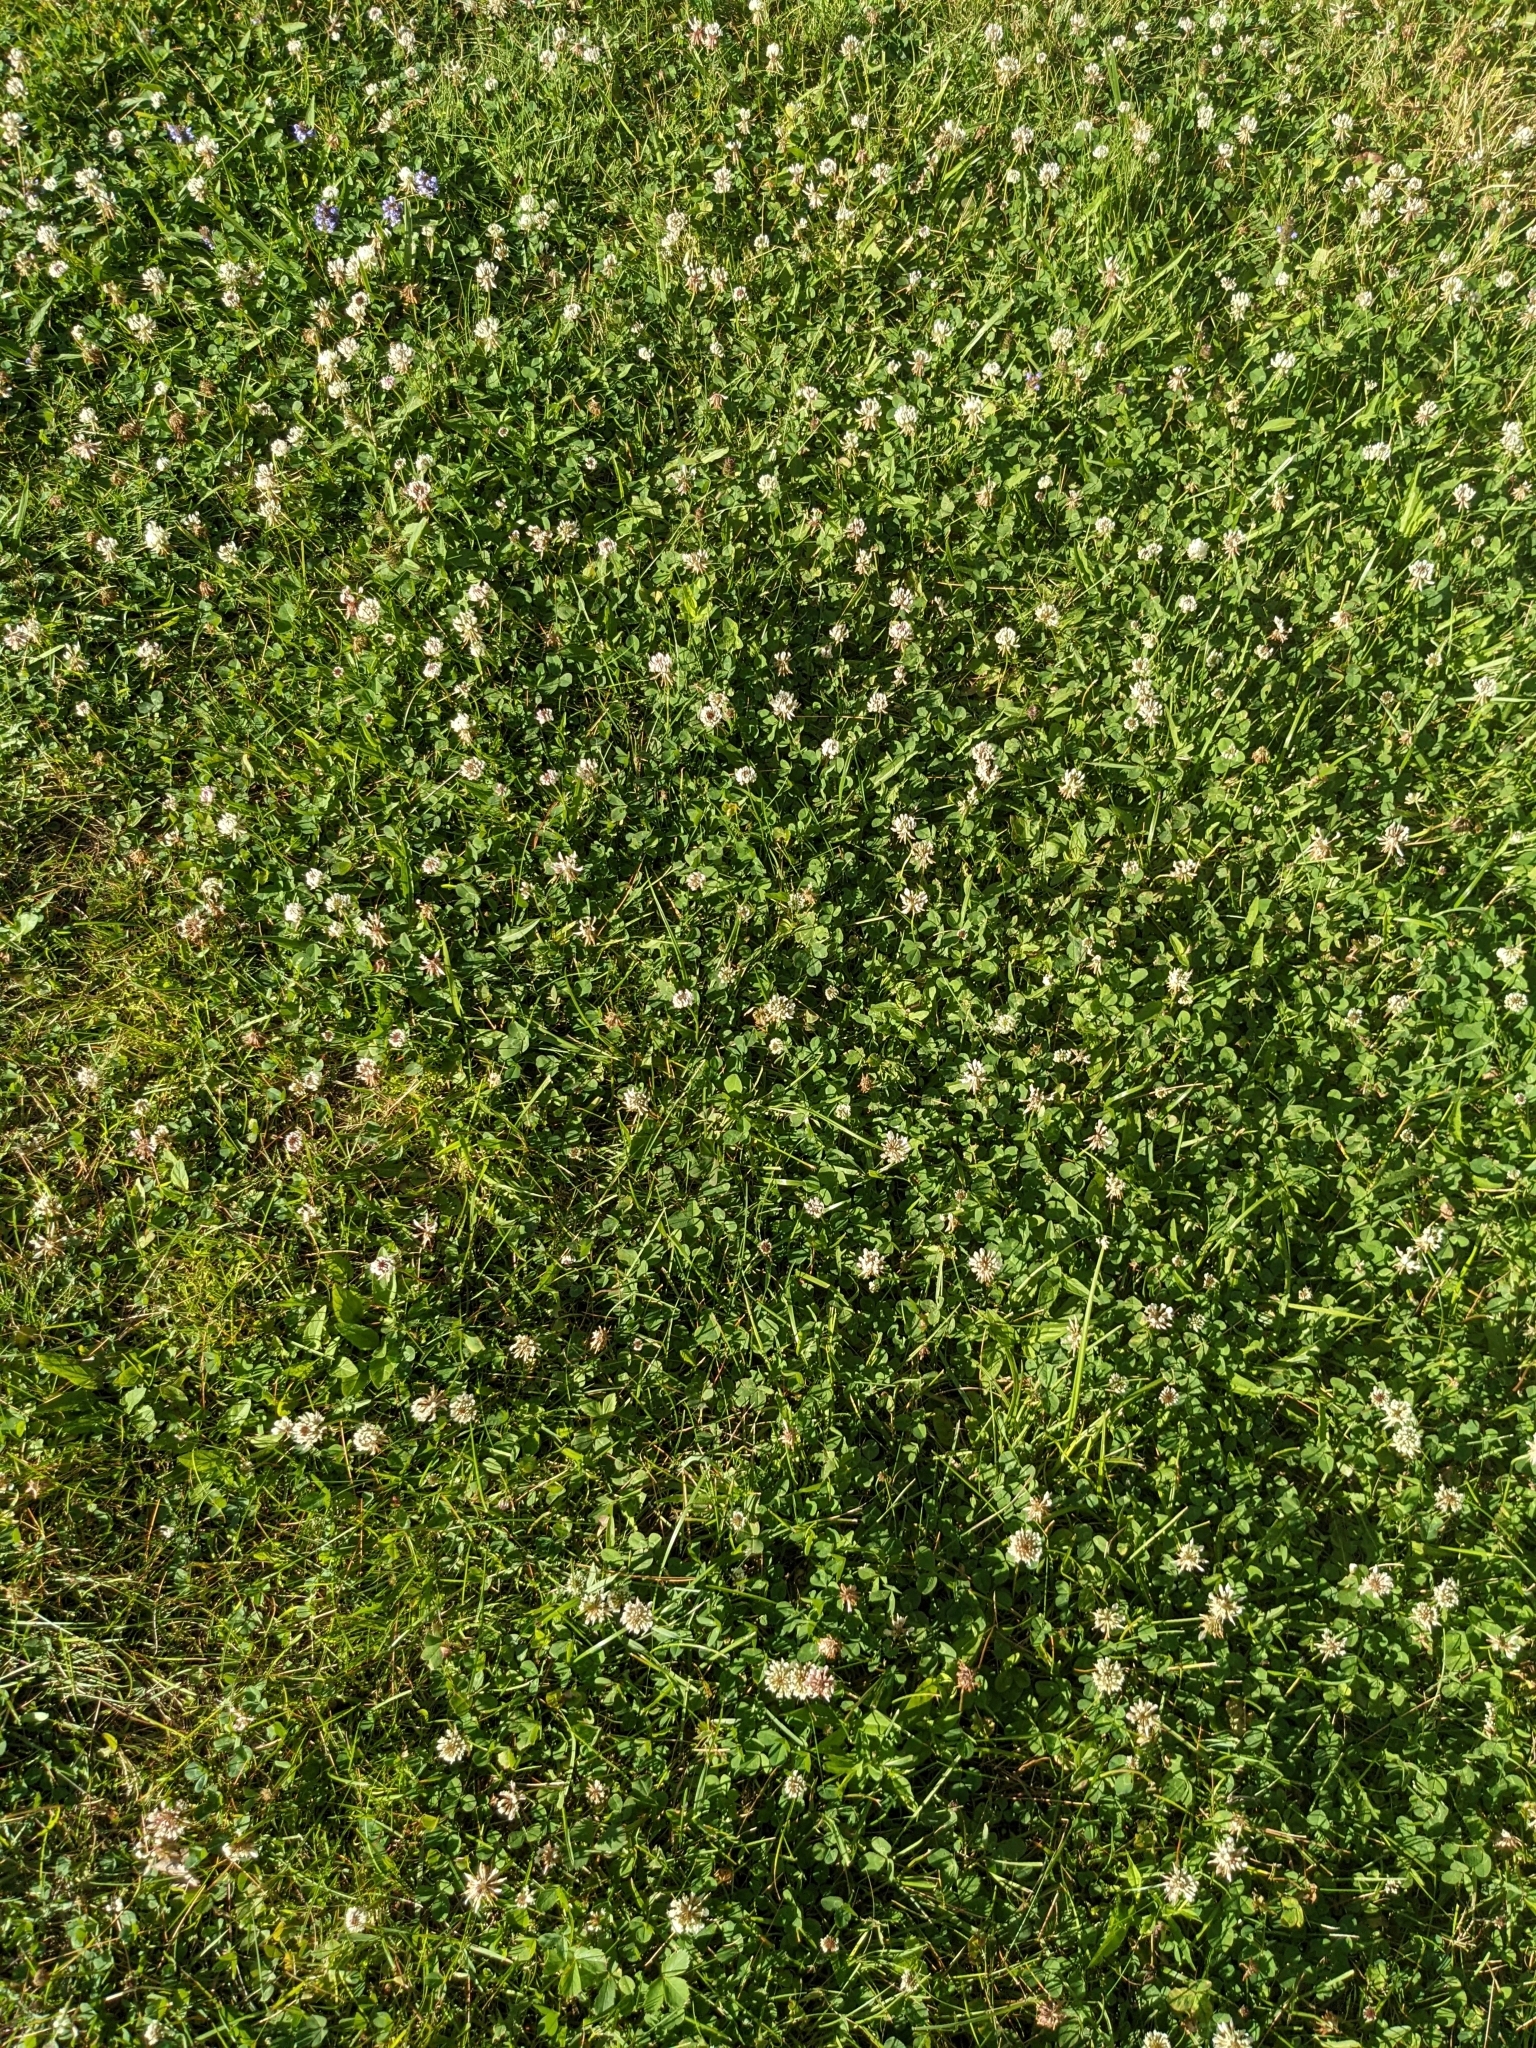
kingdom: Plantae
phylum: Tracheophyta
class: Magnoliopsida
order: Fabales
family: Fabaceae
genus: Trifolium
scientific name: Trifolium repens
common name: White clover
